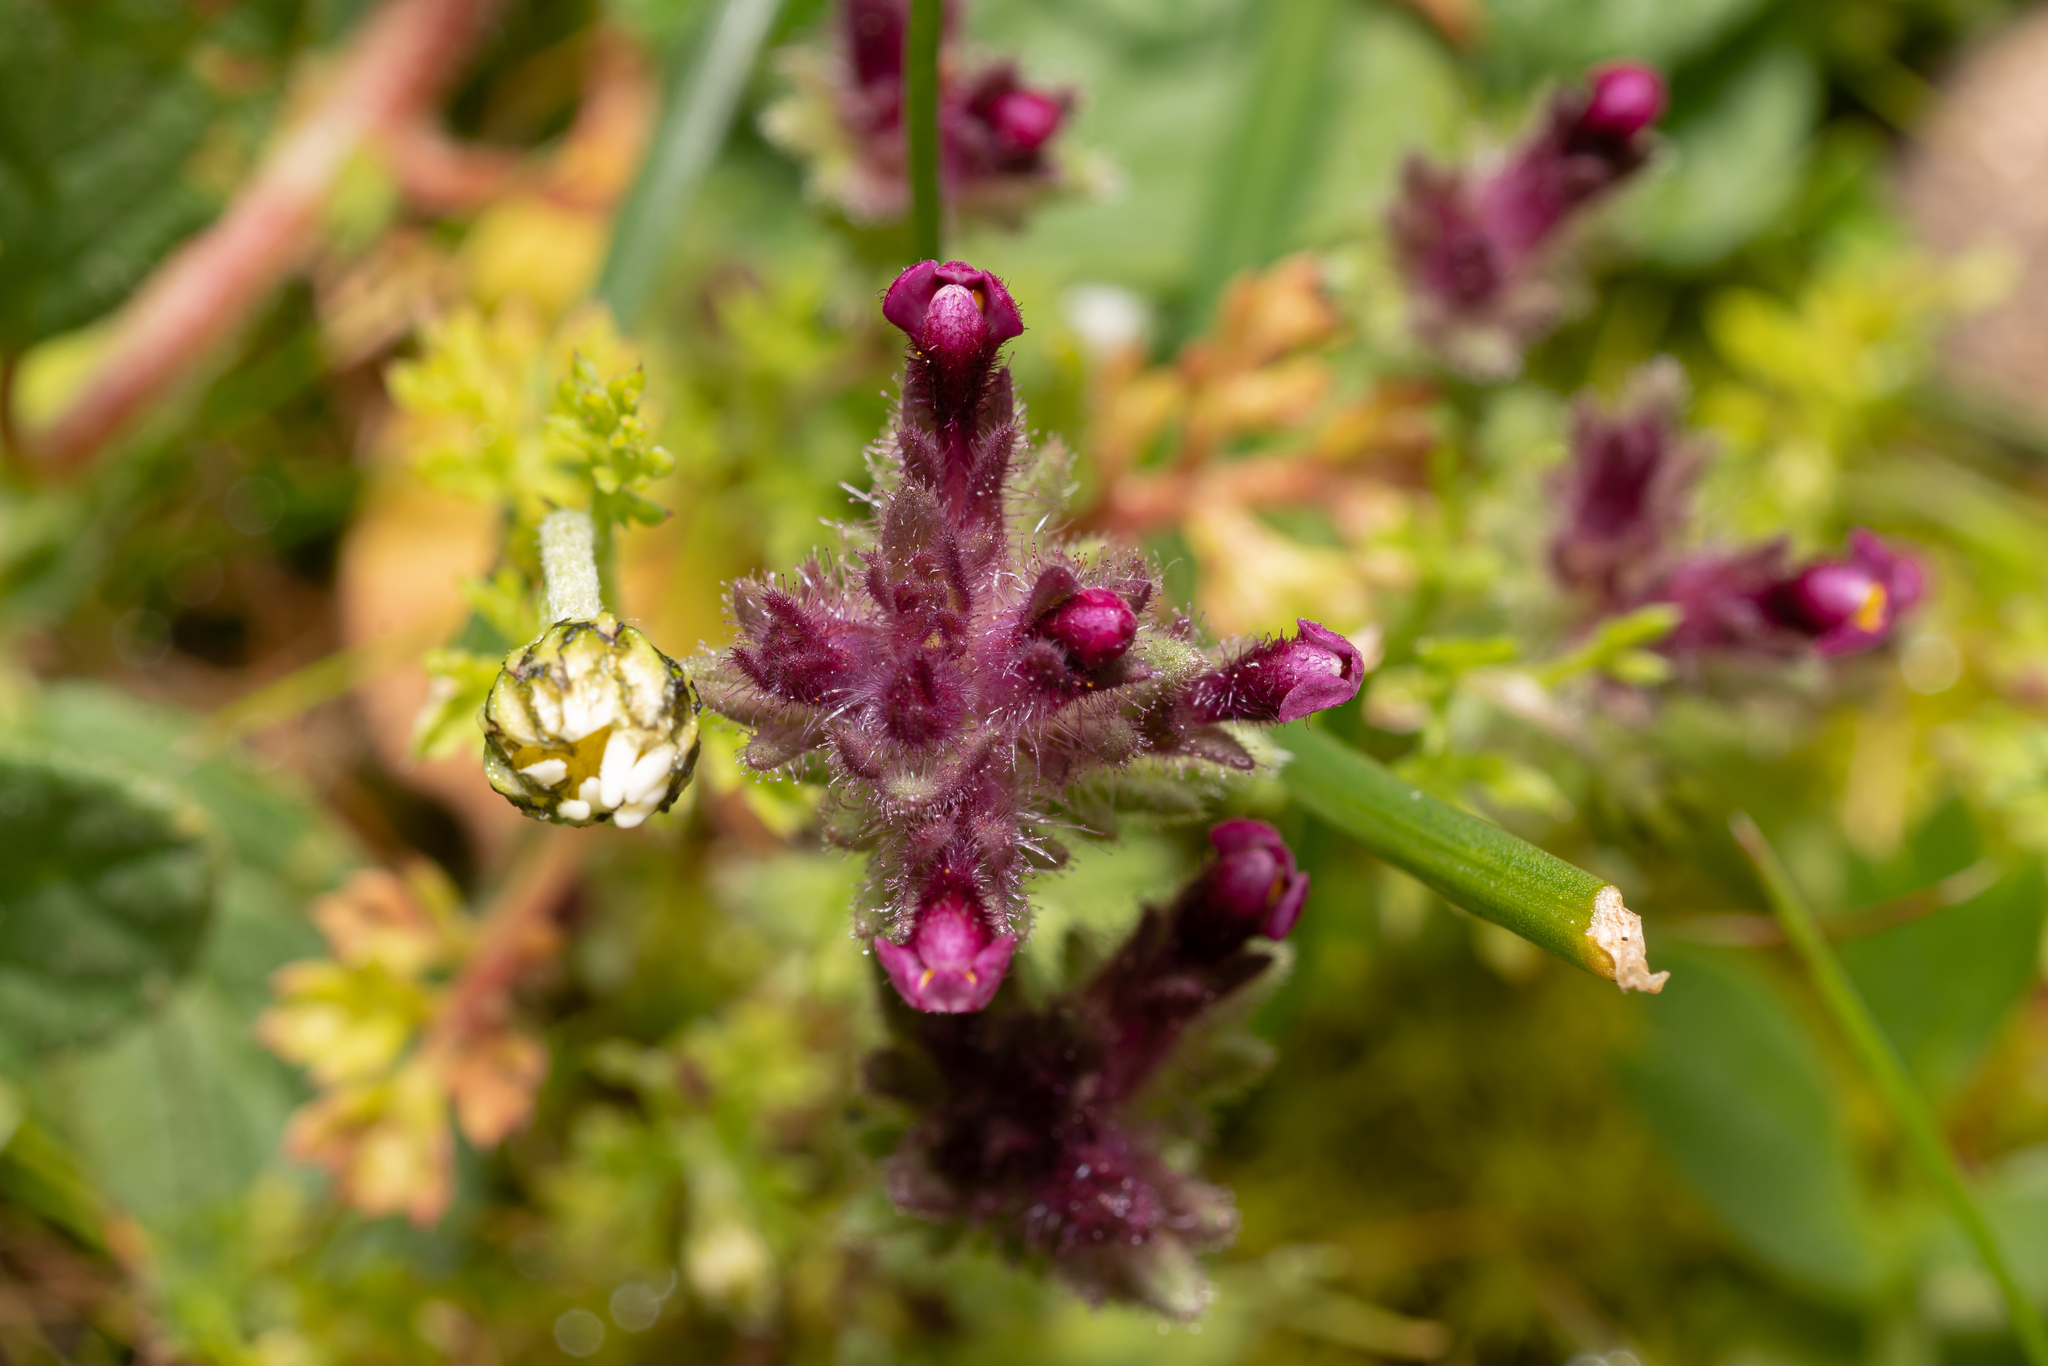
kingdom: Plantae
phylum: Tracheophyta
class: Magnoliopsida
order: Lamiales
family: Orobanchaceae
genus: Parentucellia
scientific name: Parentucellia latifolia
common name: Broadleaf glandweed
